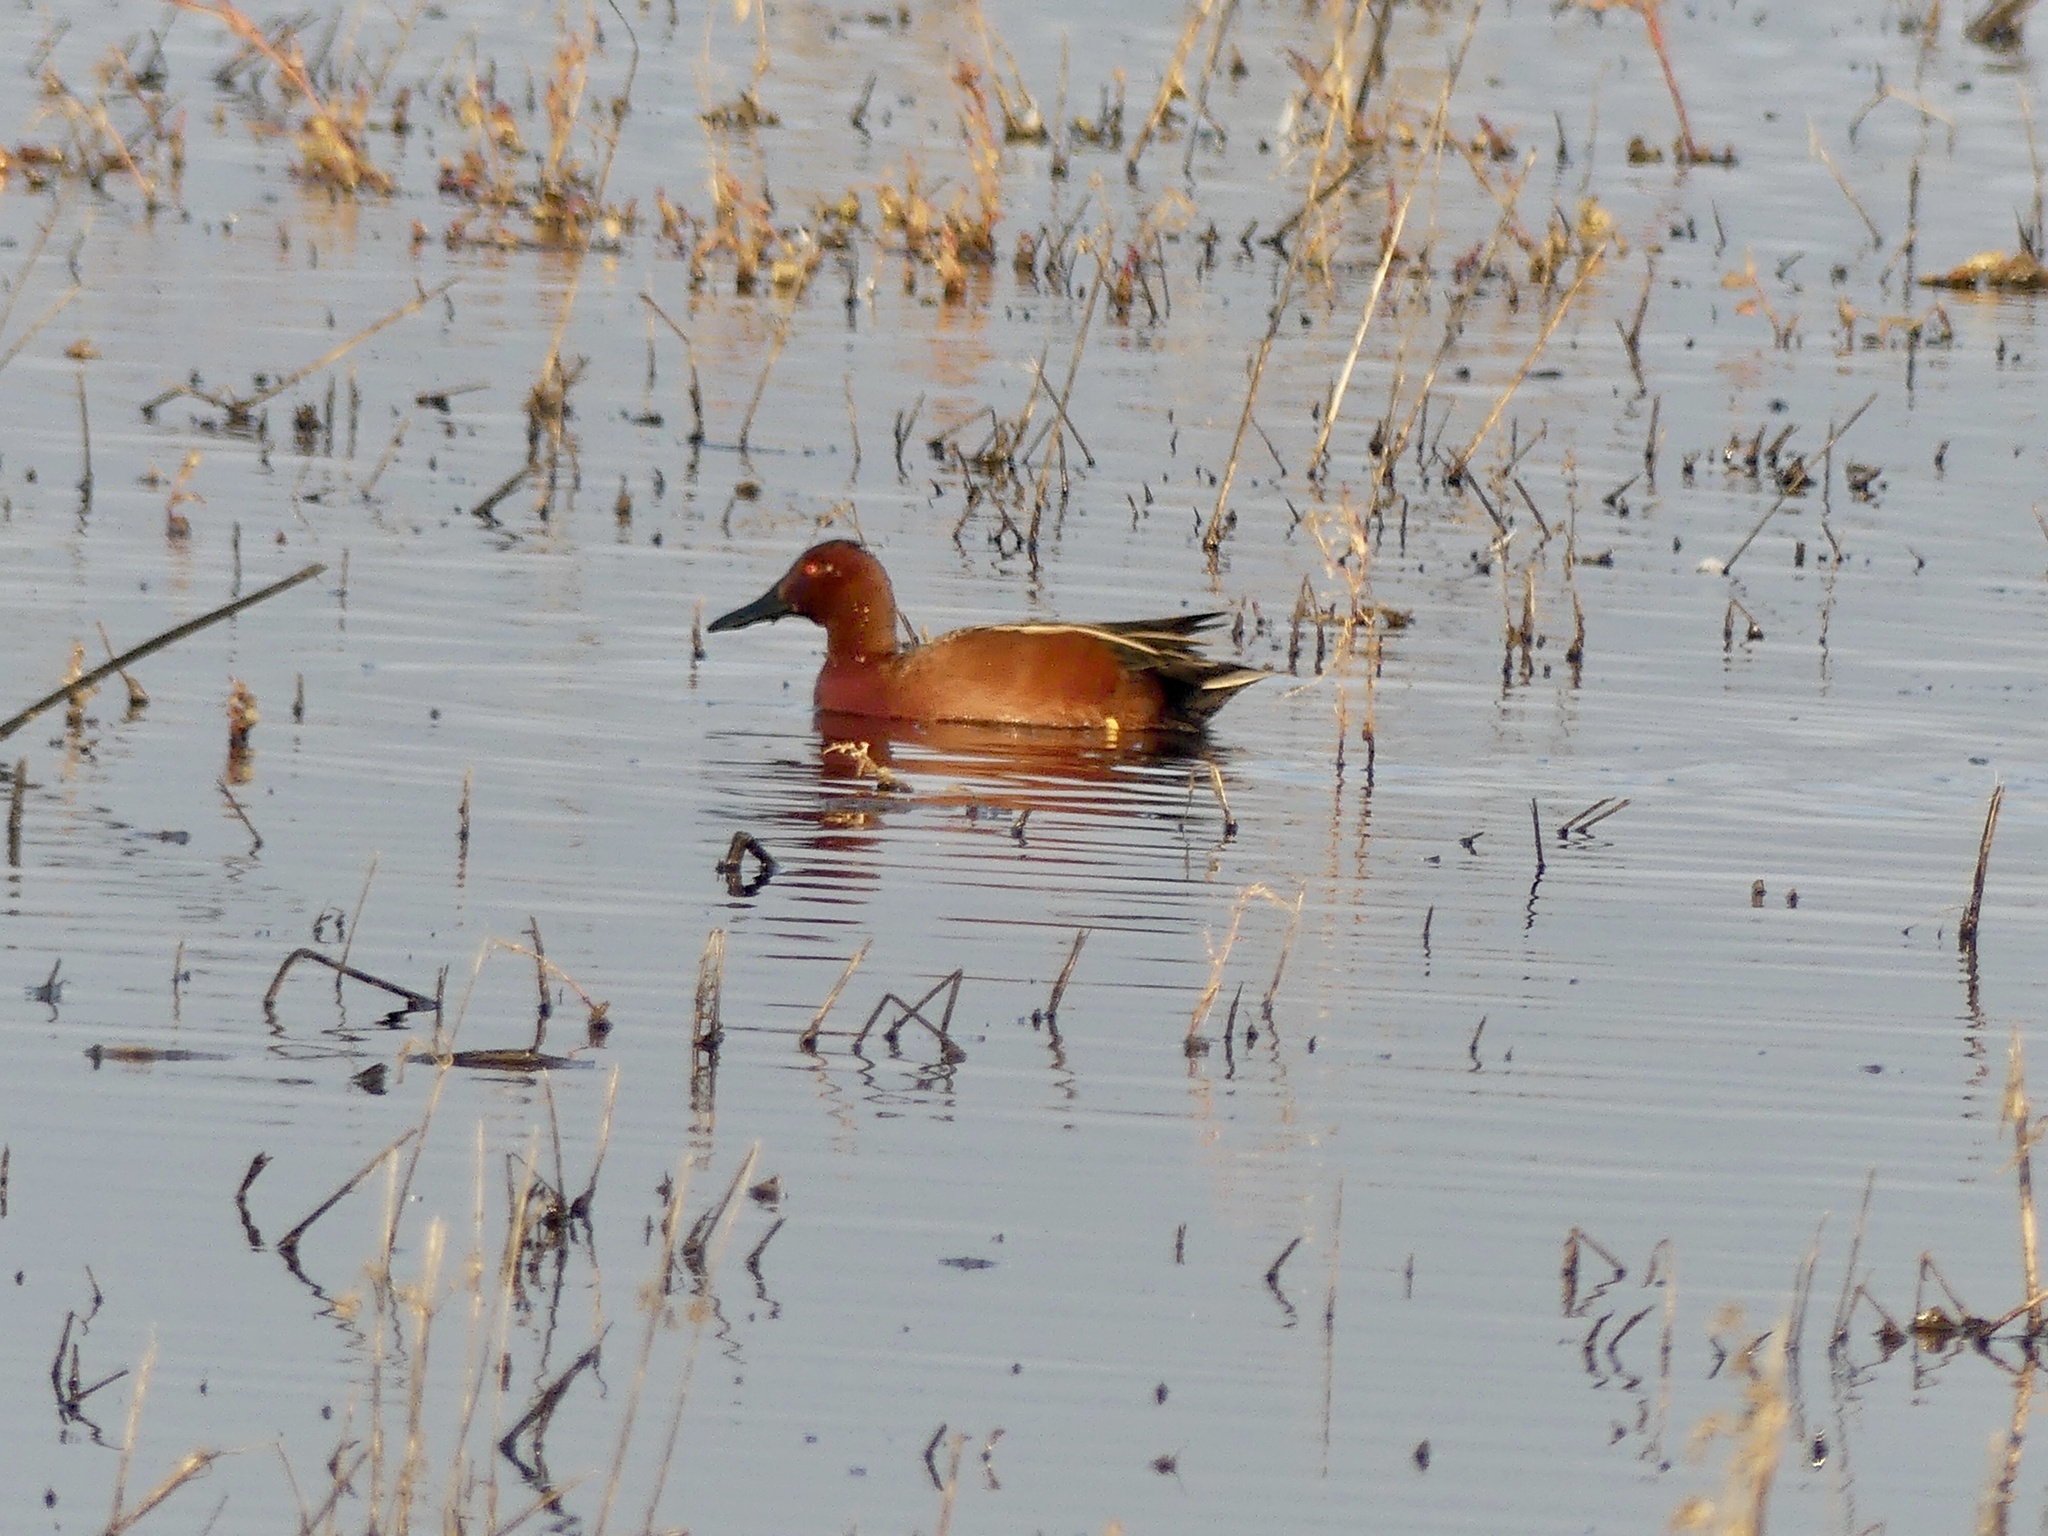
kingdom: Animalia
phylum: Chordata
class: Aves
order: Anseriformes
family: Anatidae
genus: Spatula
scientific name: Spatula cyanoptera
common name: Cinnamon teal
